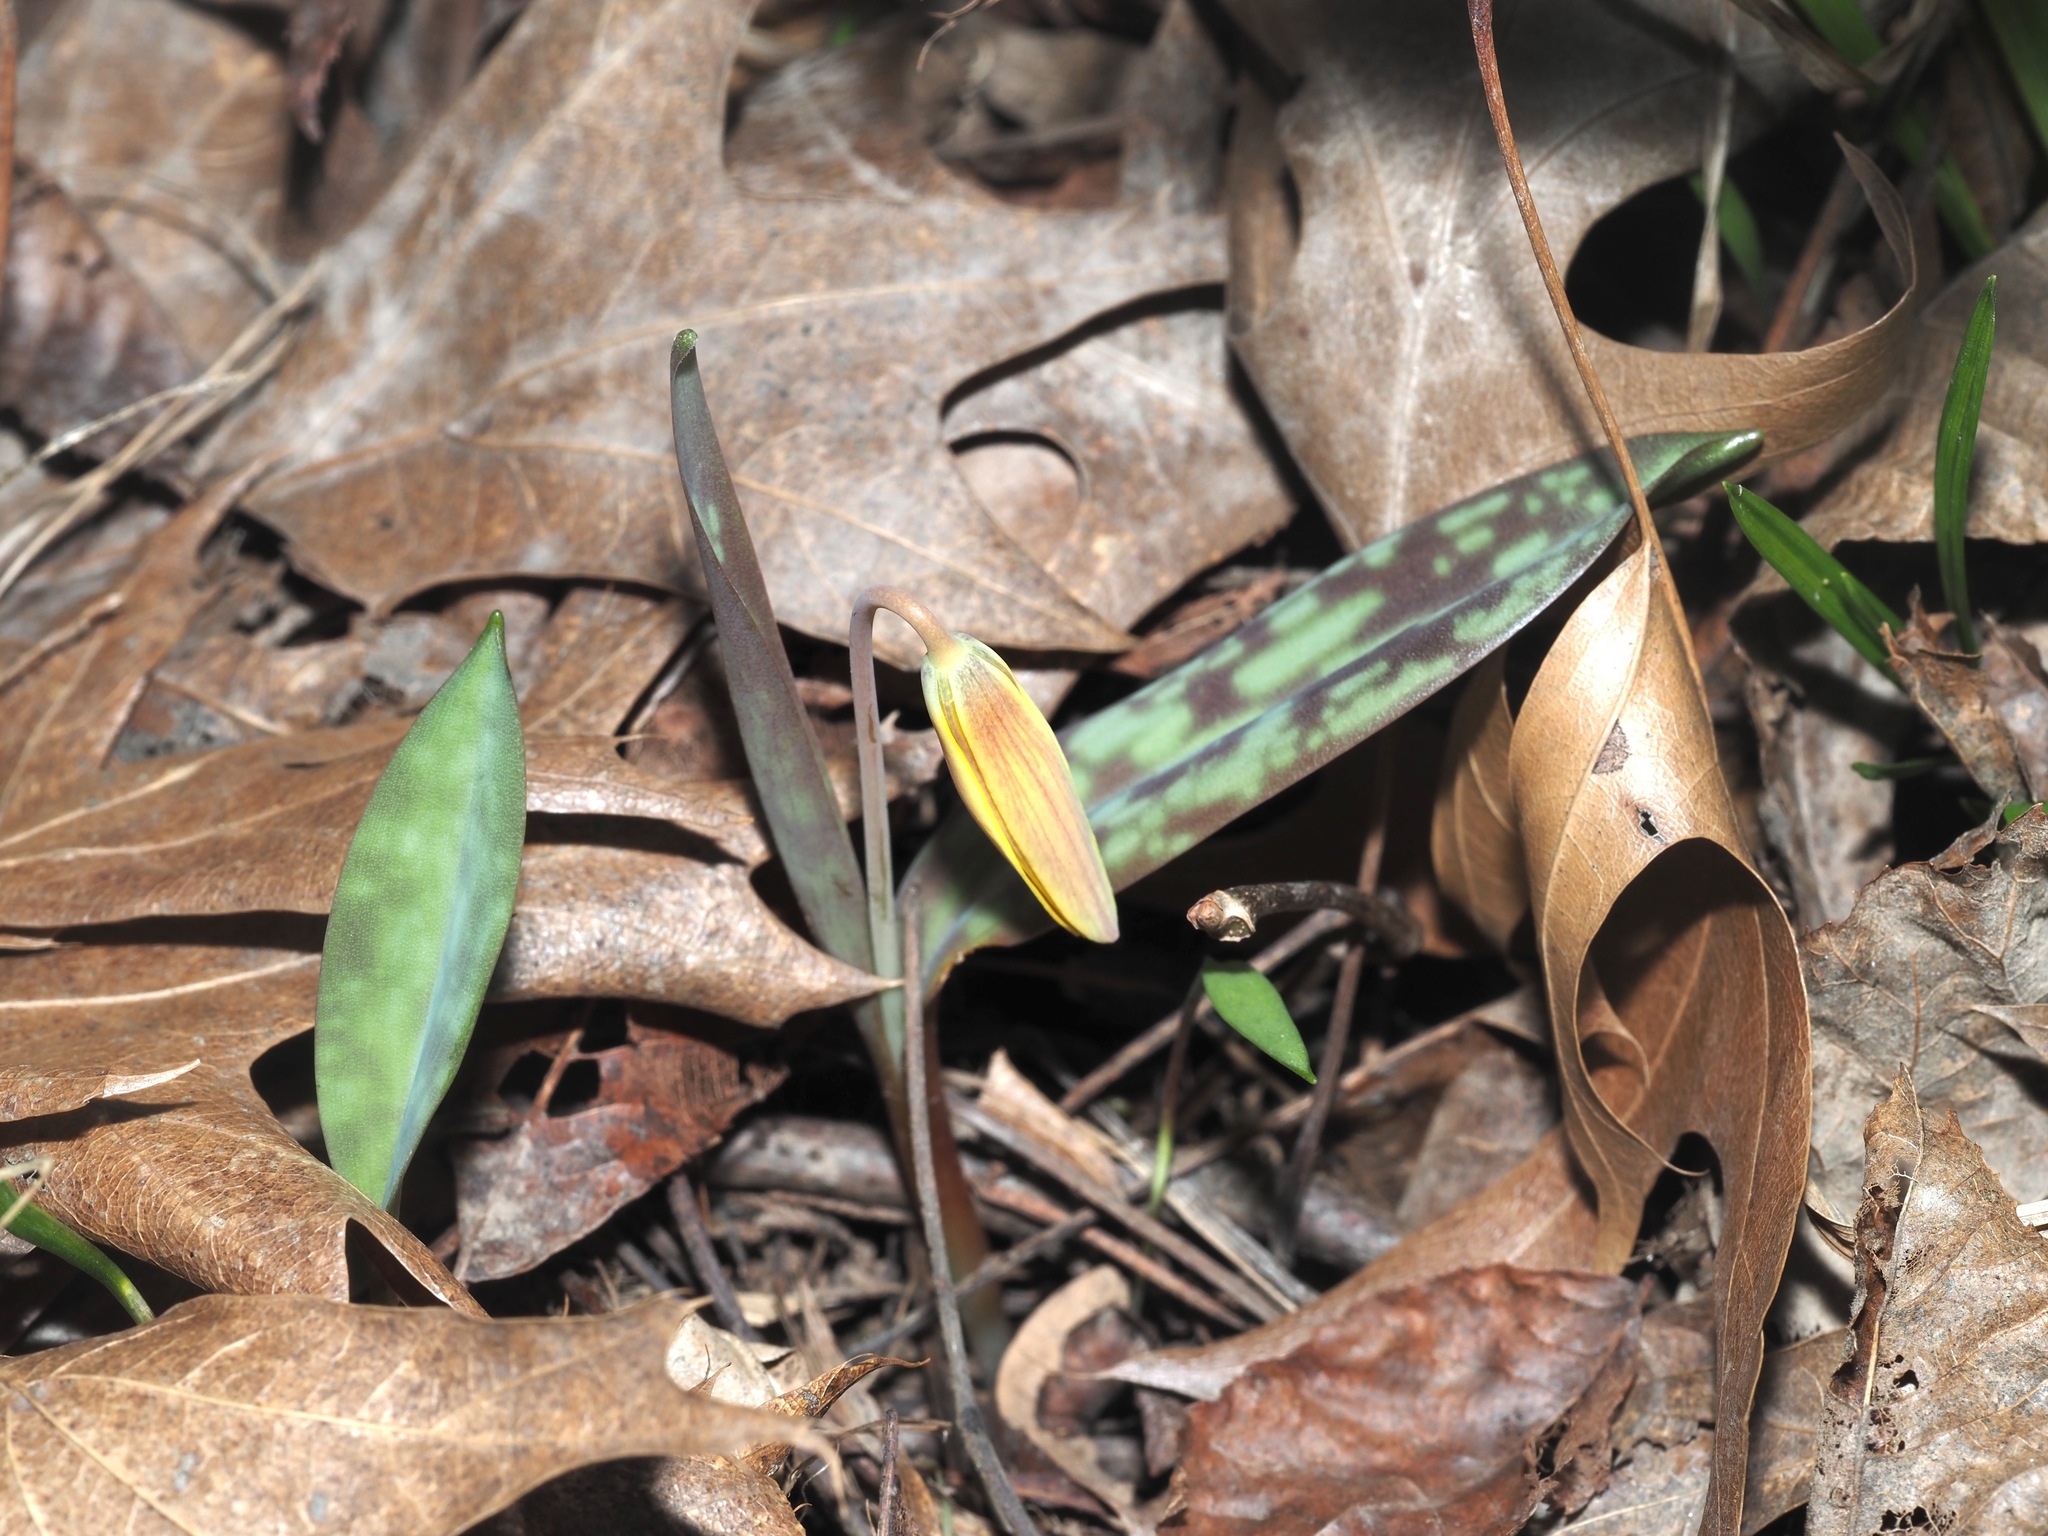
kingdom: Plantae
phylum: Tracheophyta
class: Liliopsida
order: Liliales
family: Liliaceae
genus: Erythronium
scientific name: Erythronium americanum
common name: Yellow adder's-tongue
